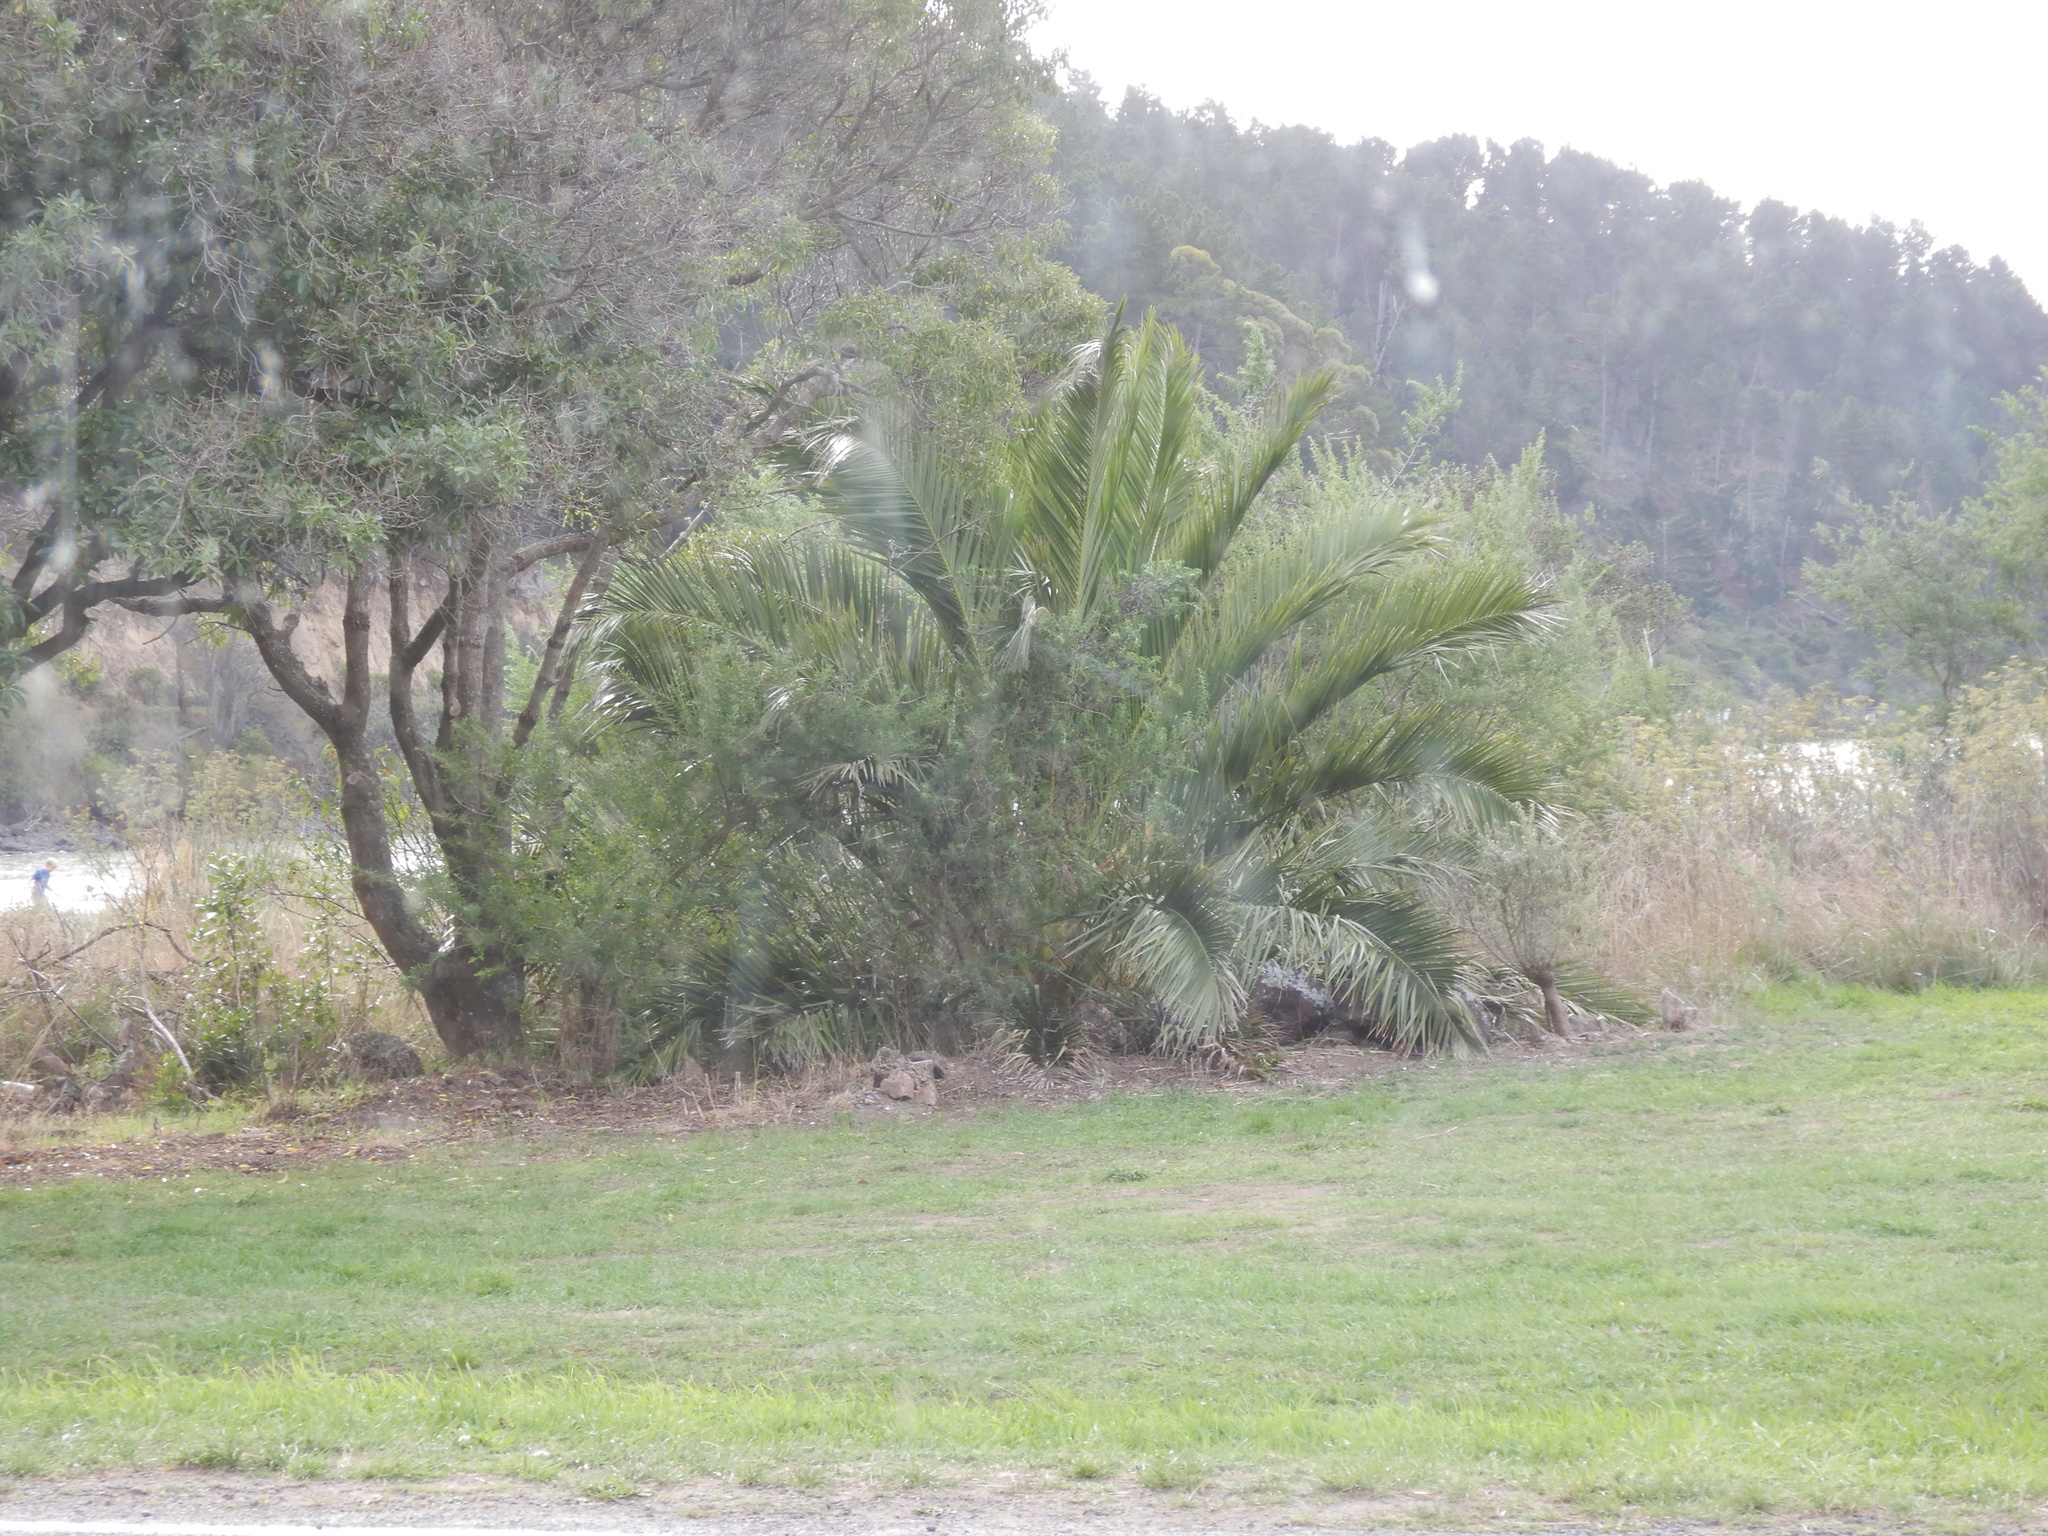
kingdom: Plantae
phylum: Tracheophyta
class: Liliopsida
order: Arecales
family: Arecaceae
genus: Phoenix
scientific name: Phoenix canariensis
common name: Canary island date palm
